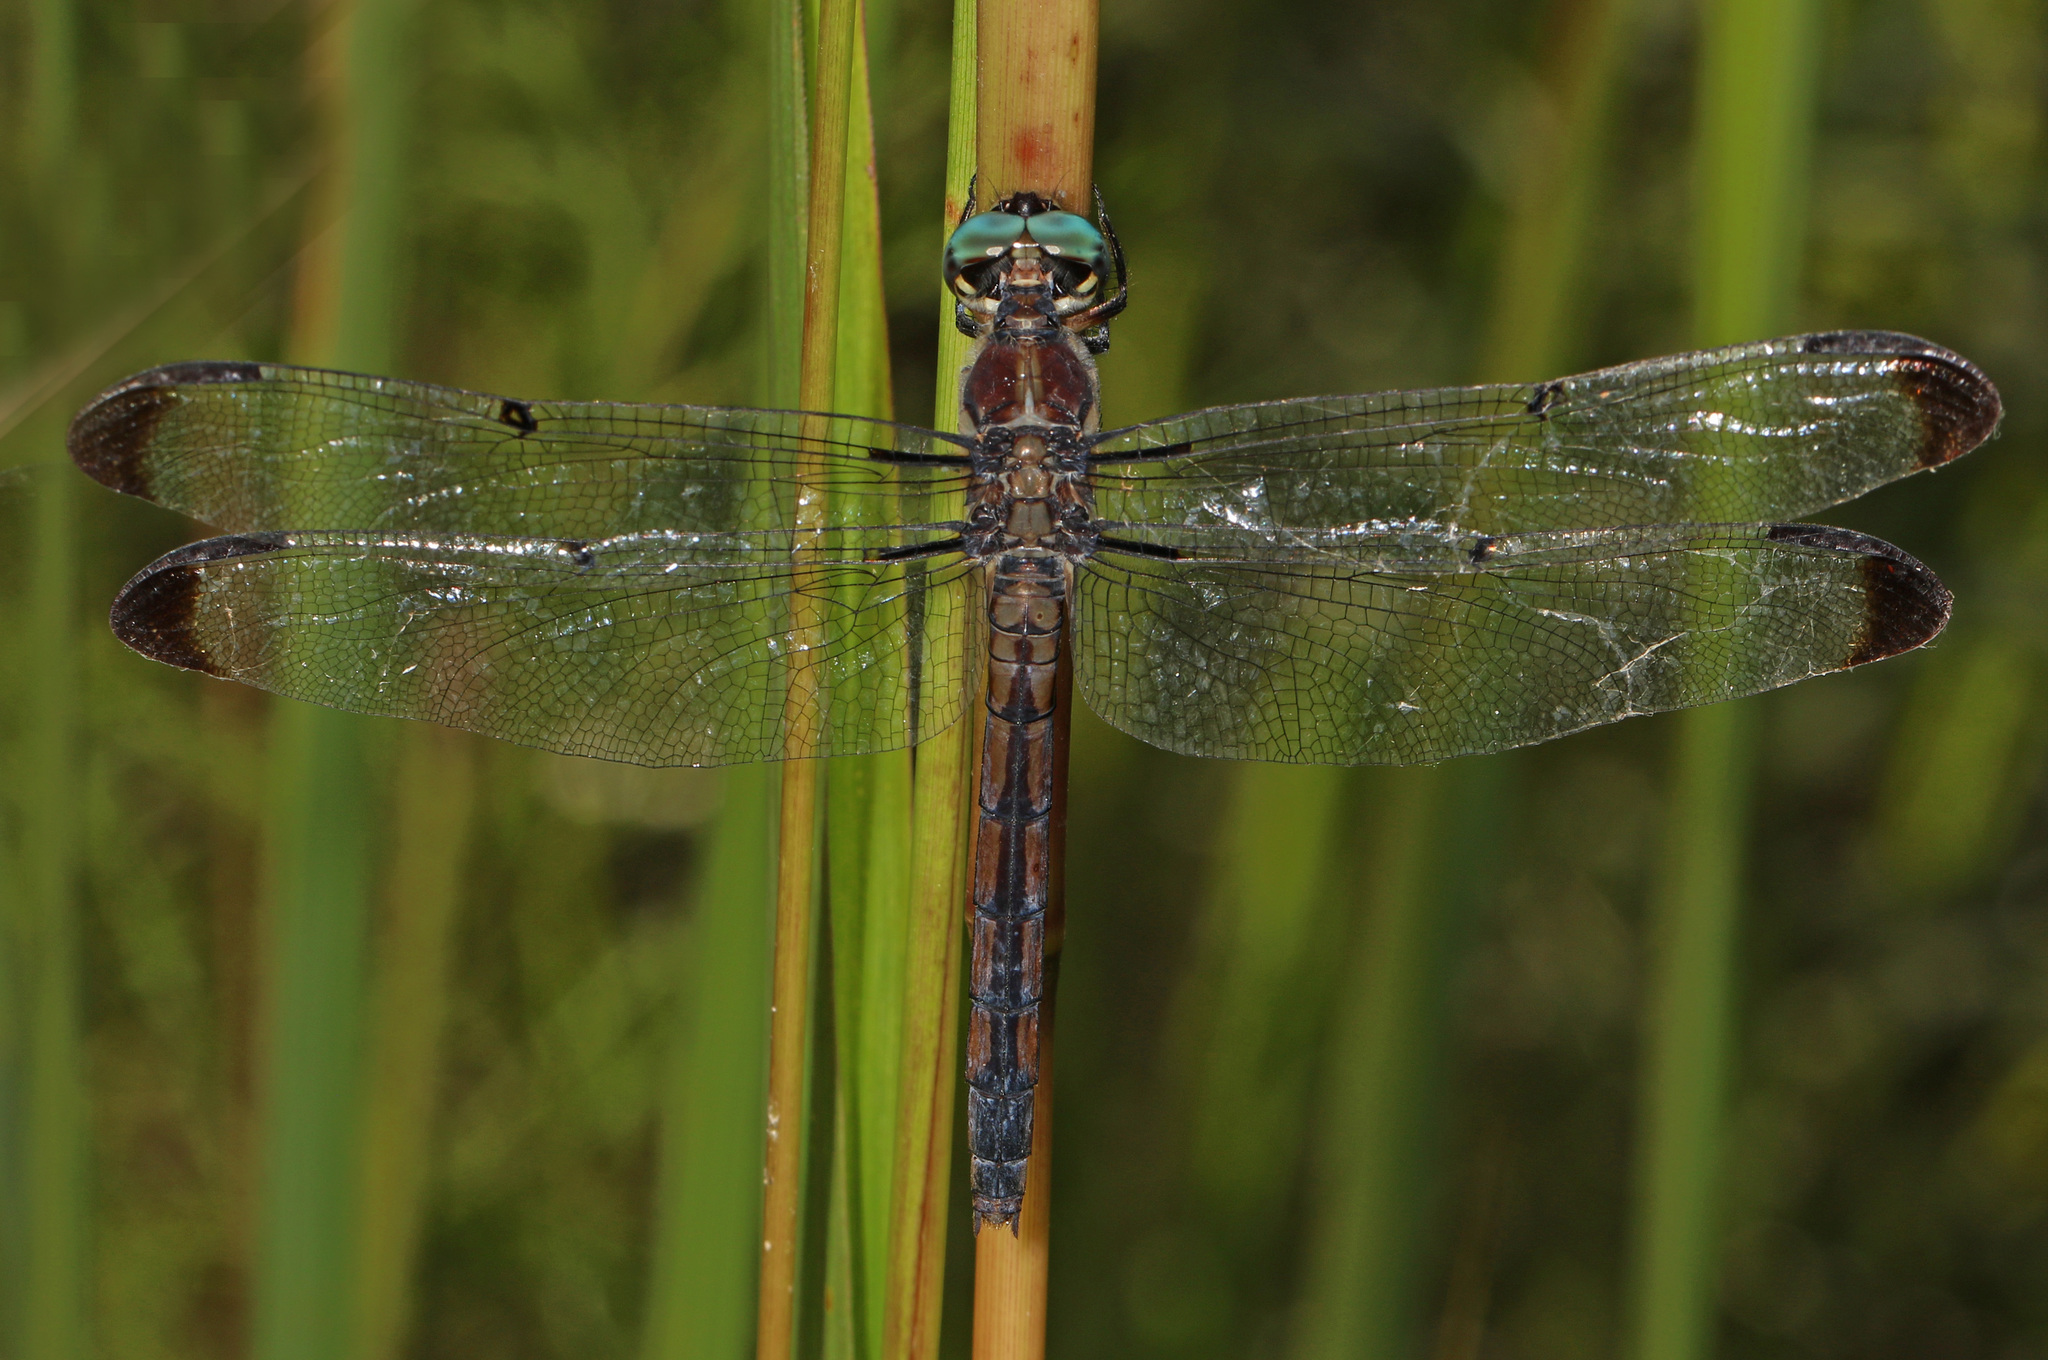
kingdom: Animalia
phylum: Arthropoda
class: Insecta
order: Odonata
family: Libellulidae
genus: Libellula
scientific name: Libellula vibrans
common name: Great blue skimmer
